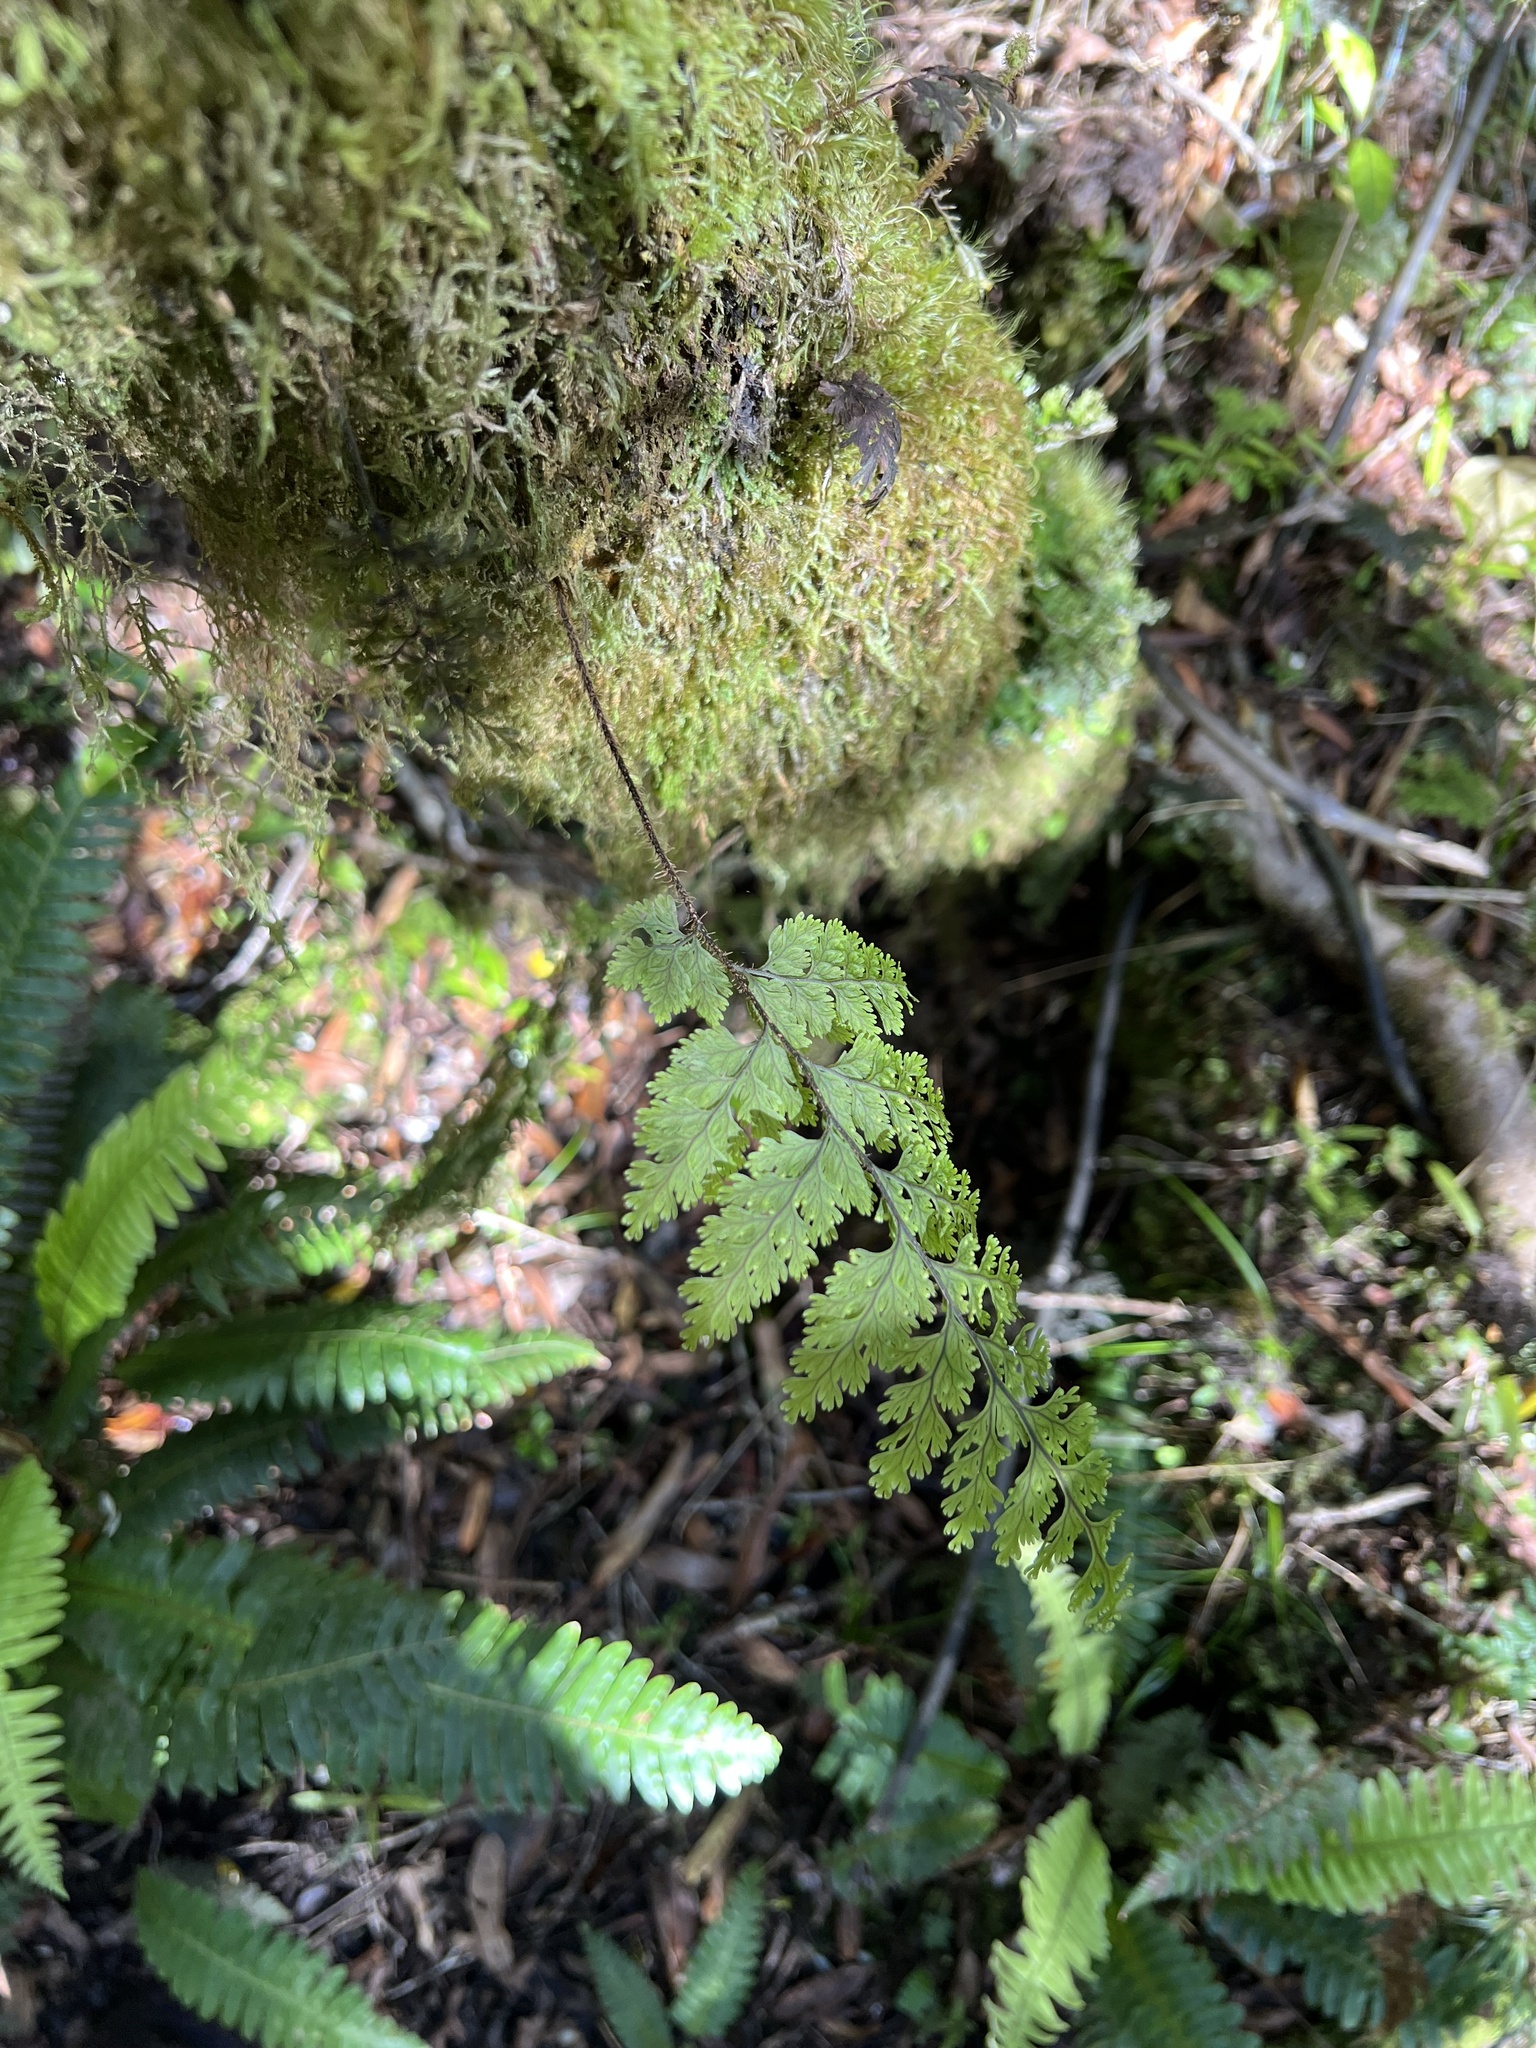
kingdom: Plantae
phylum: Tracheophyta
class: Polypodiopsida
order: Hymenophyllales
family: Hymenophyllaceae
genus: Hymenophyllum
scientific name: Hymenophyllum scabrum
